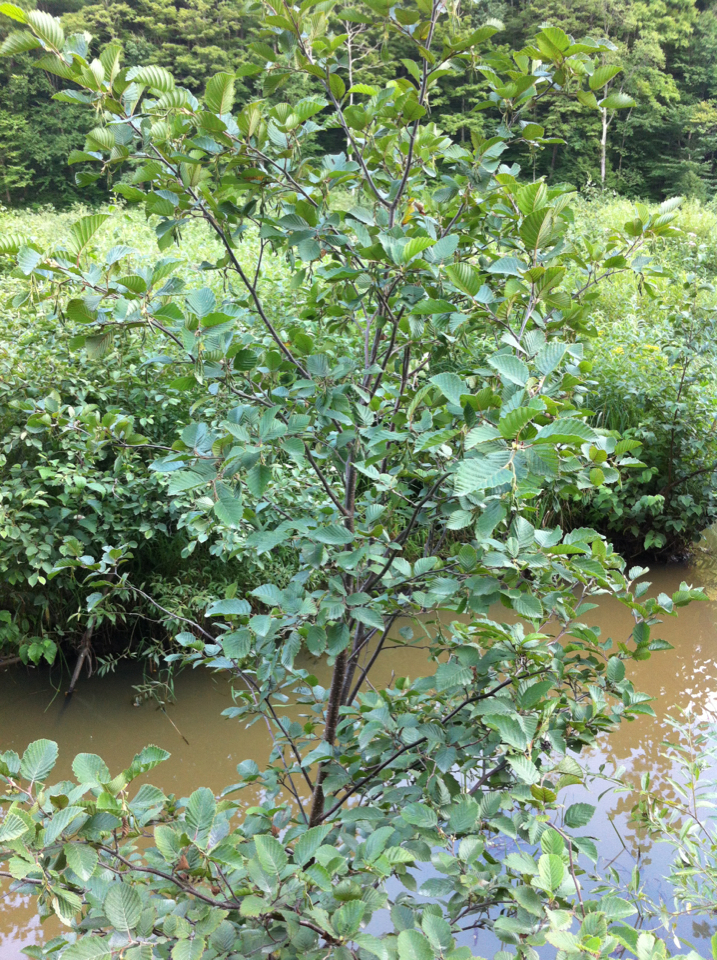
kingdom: Plantae
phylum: Tracheophyta
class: Magnoliopsida
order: Fagales
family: Betulaceae
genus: Alnus
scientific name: Alnus incana
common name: Grey alder
